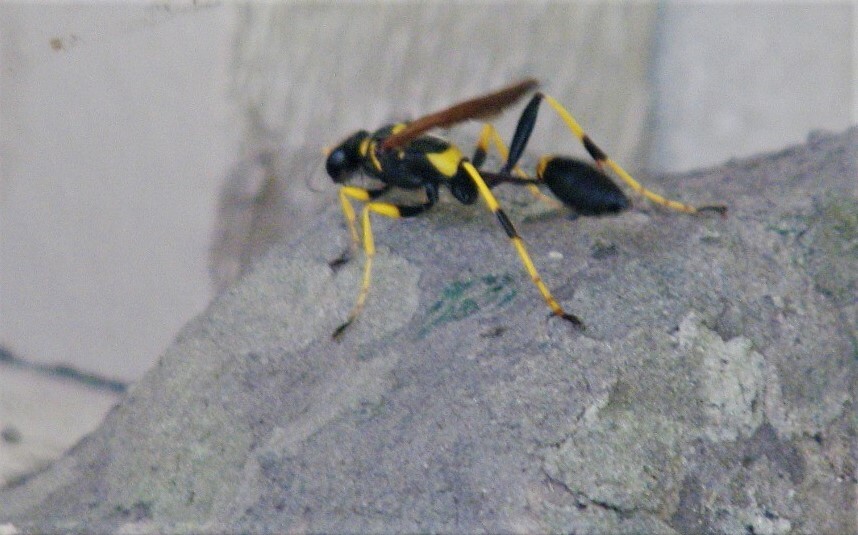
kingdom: Animalia
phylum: Arthropoda
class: Insecta
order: Hymenoptera
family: Sphecidae
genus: Sceliphron
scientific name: Sceliphron caementarium
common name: Mud dauber
